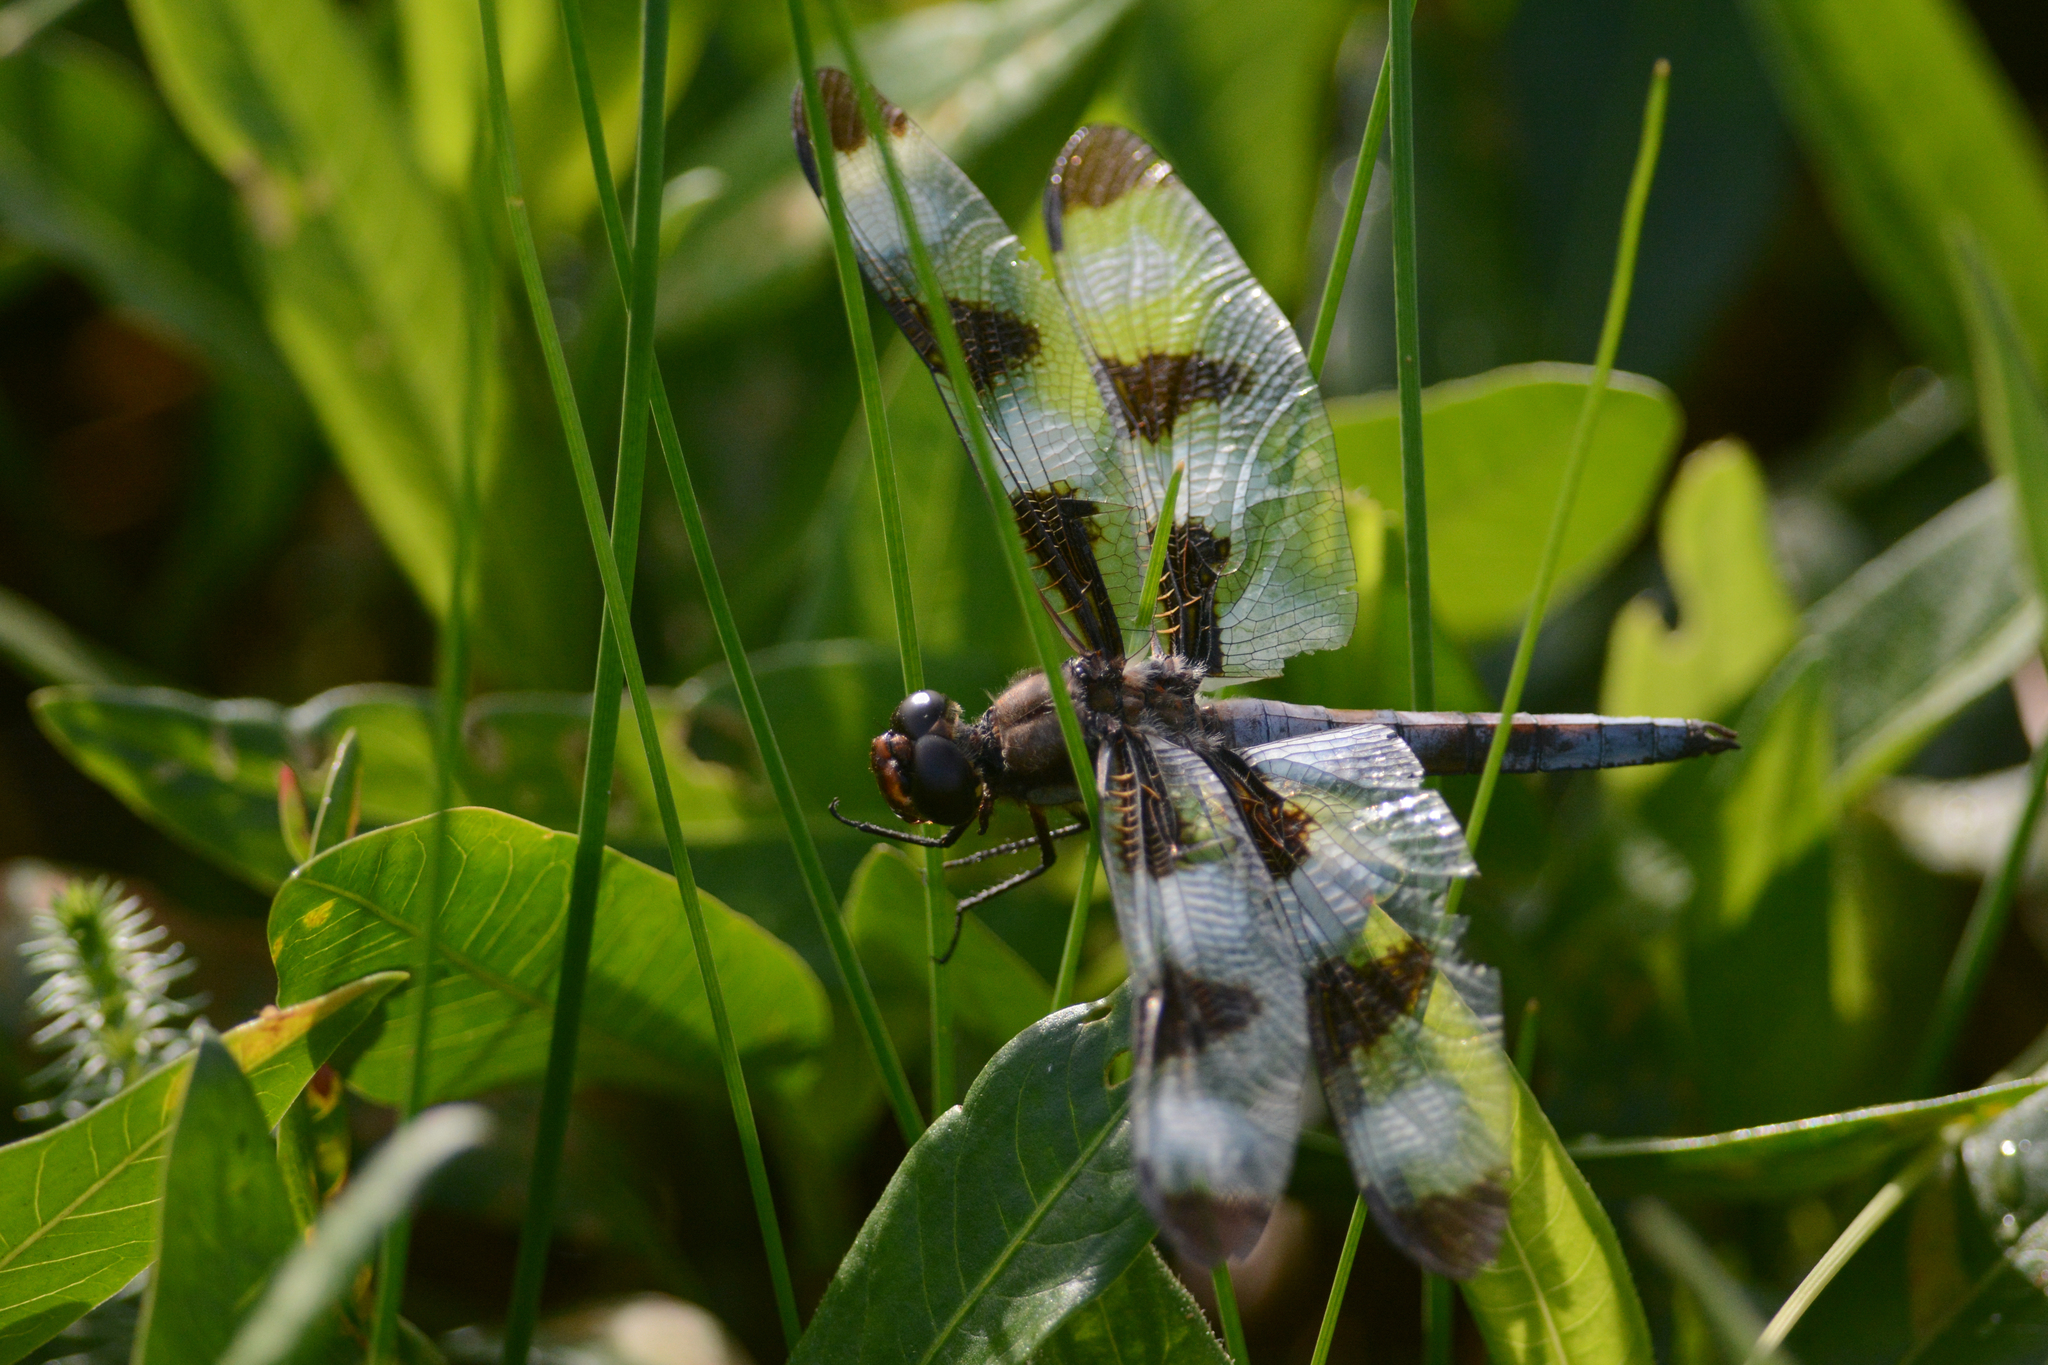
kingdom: Animalia
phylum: Arthropoda
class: Insecta
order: Odonata
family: Libellulidae
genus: Libellula
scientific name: Libellula pulchella
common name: Twelve-spotted skimmer
